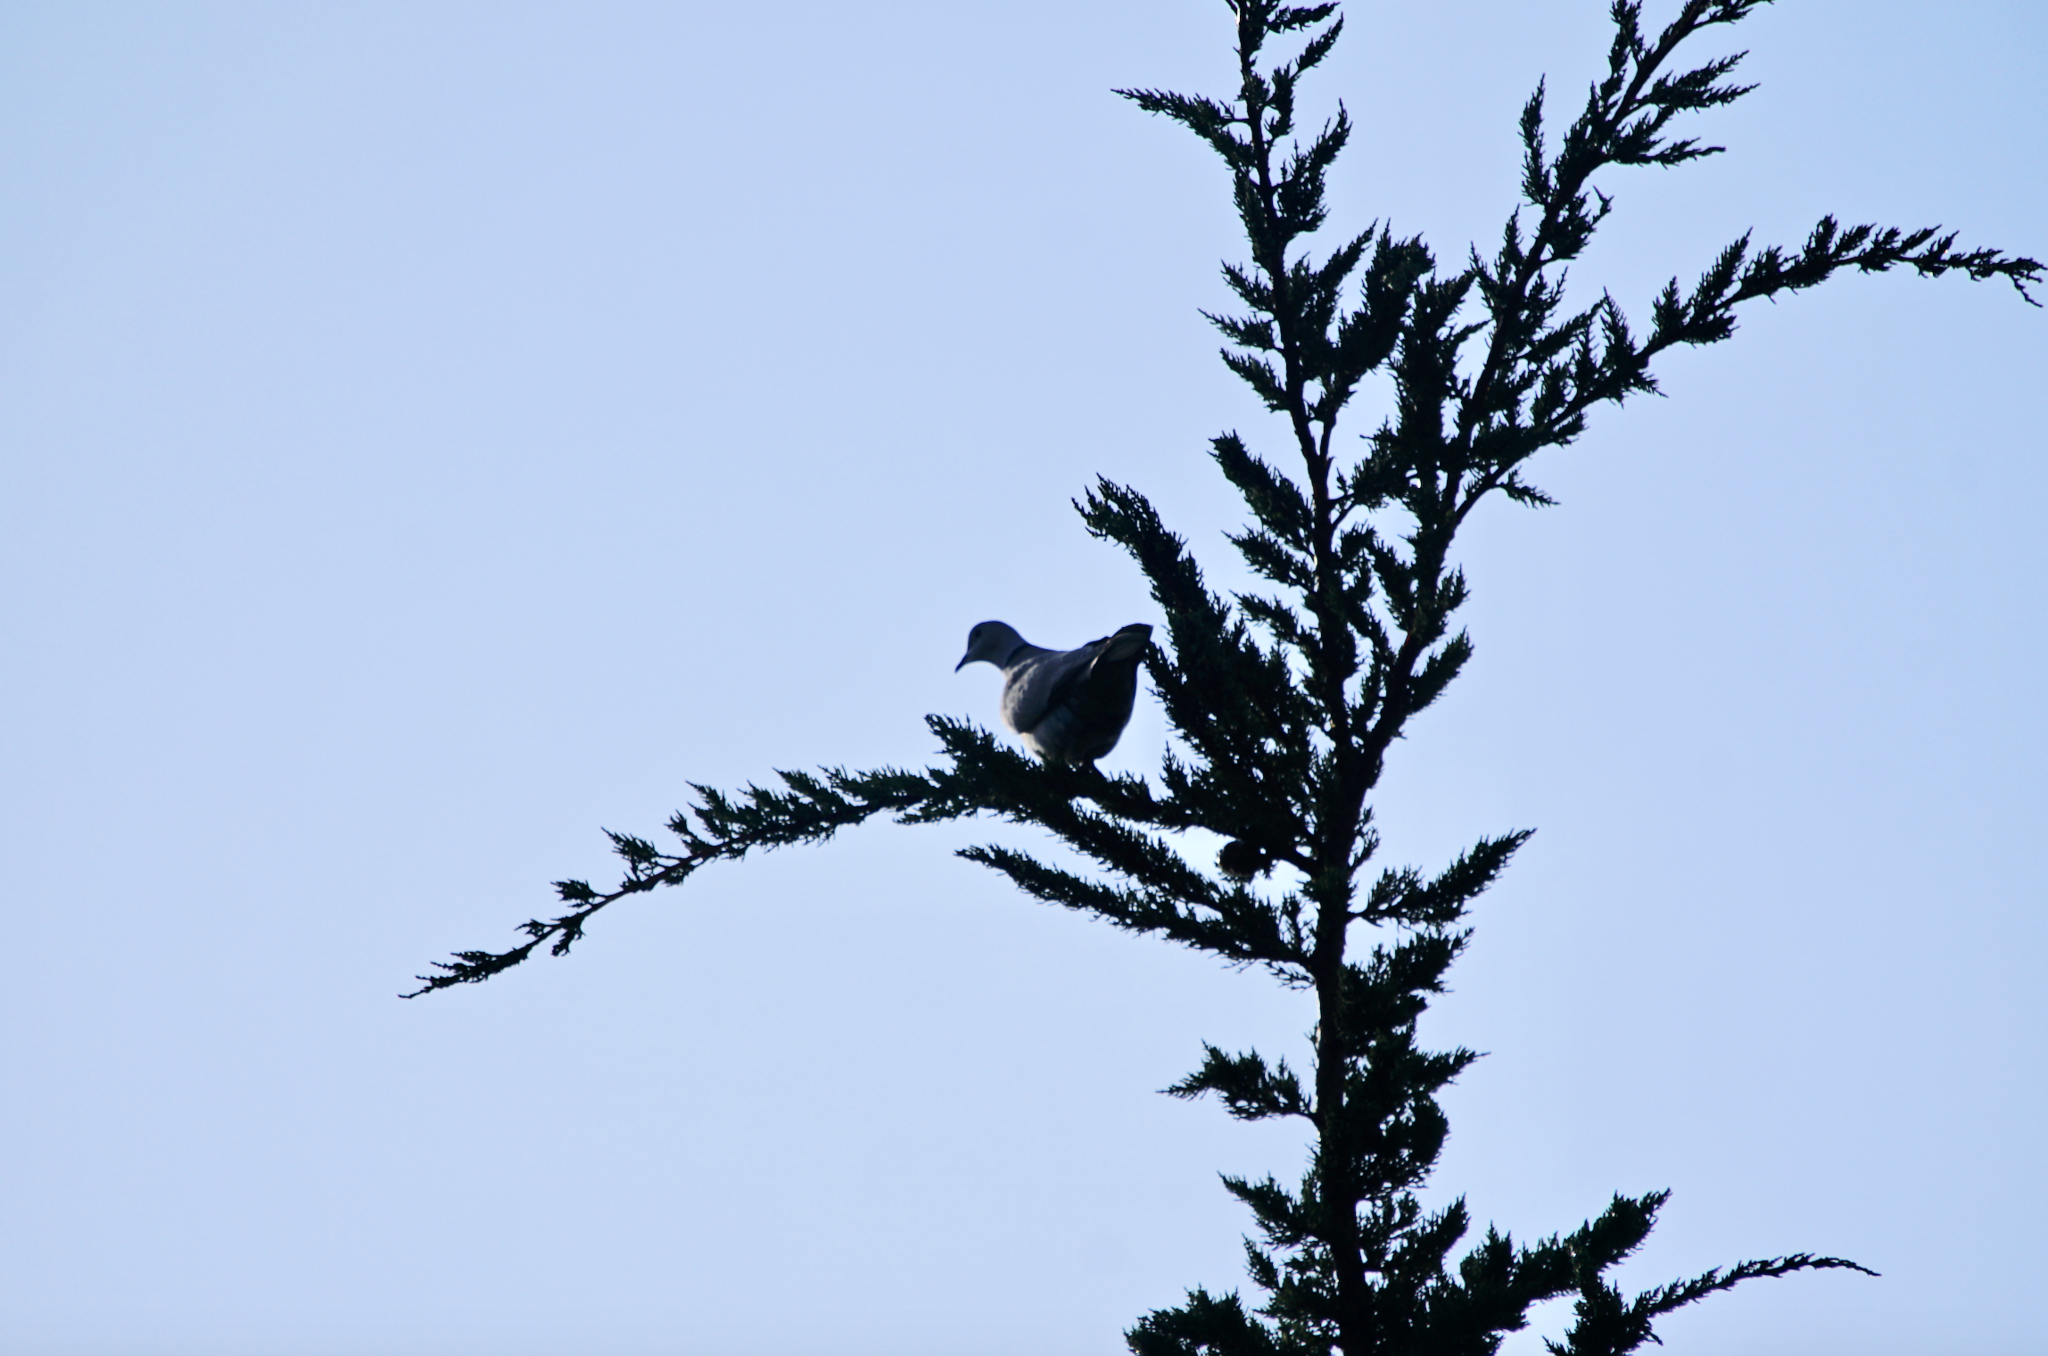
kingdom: Animalia
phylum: Chordata
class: Aves
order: Columbiformes
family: Columbidae
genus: Streptopelia
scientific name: Streptopelia decaocto
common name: Eurasian collared dove
